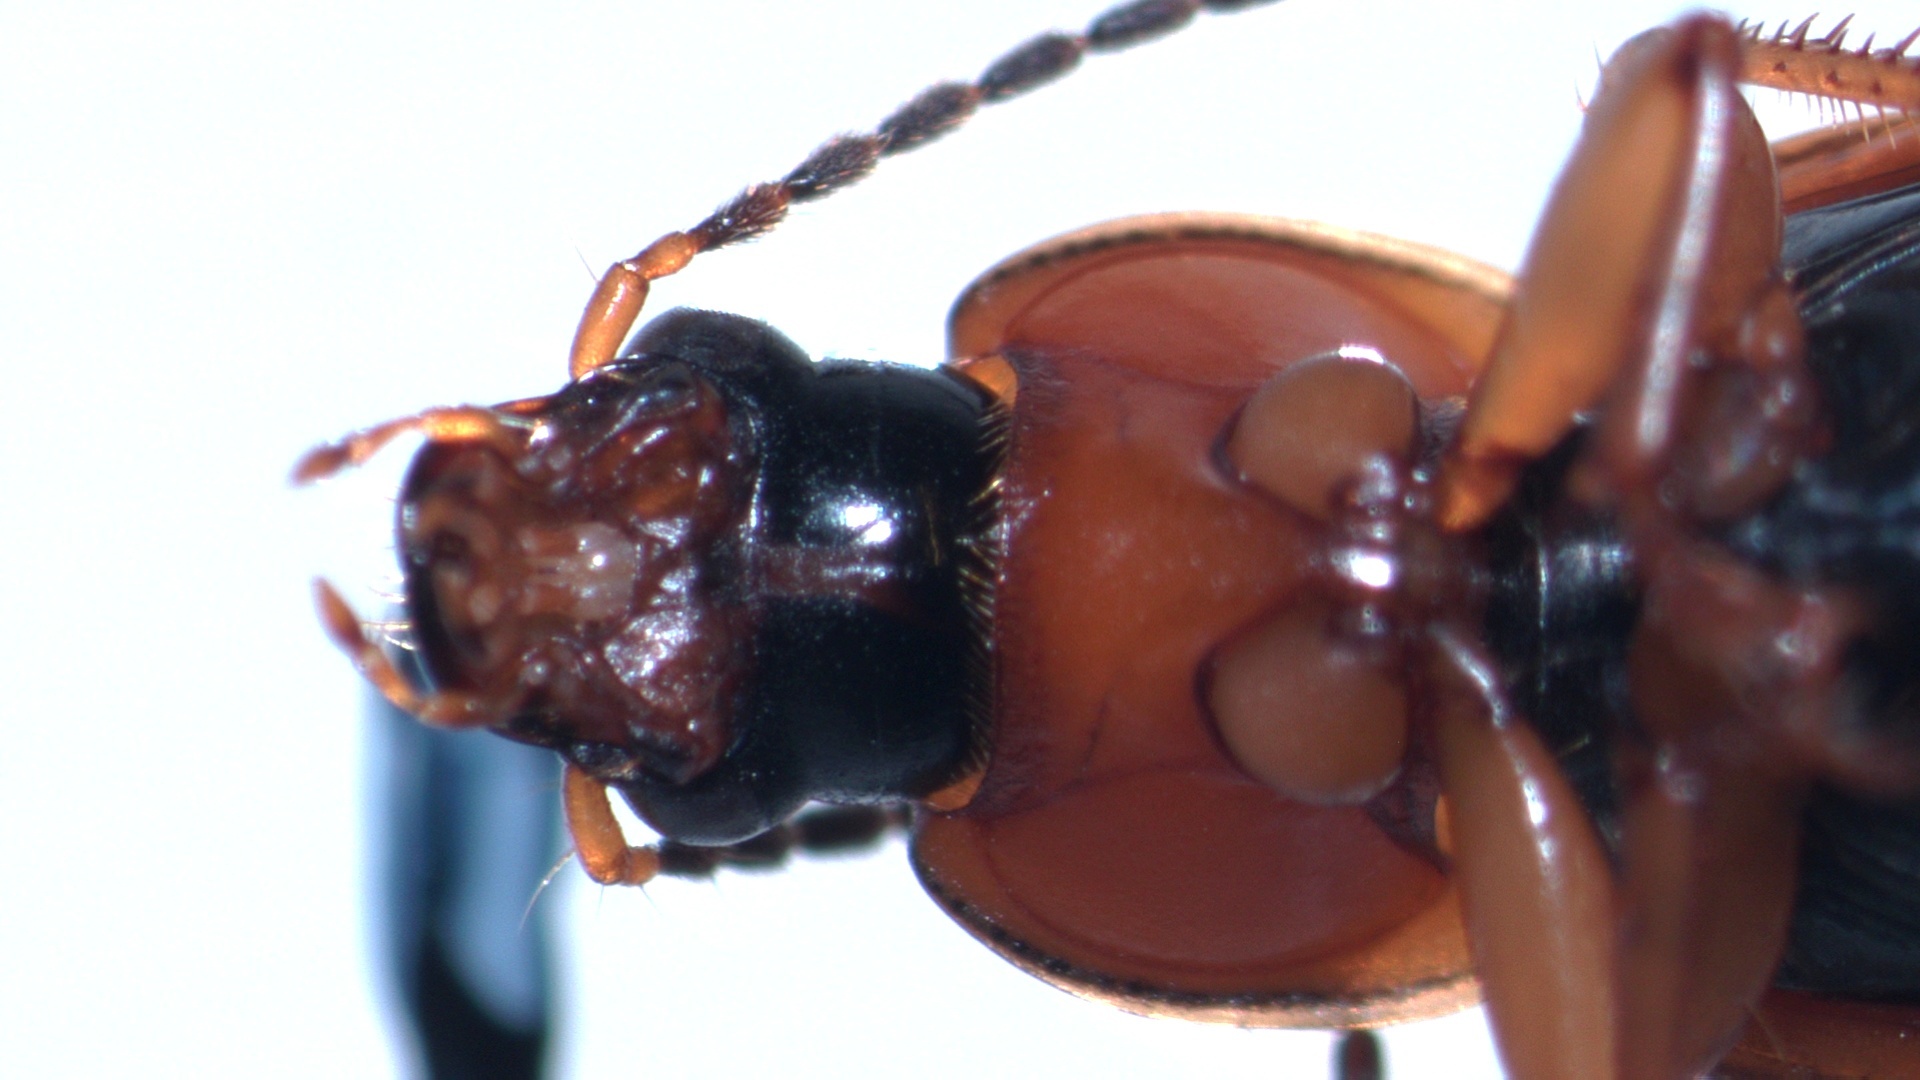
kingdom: Animalia
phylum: Arthropoda
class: Insecta
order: Coleoptera
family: Carabidae
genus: Stenolophus
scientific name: Stenolophus teutonus
